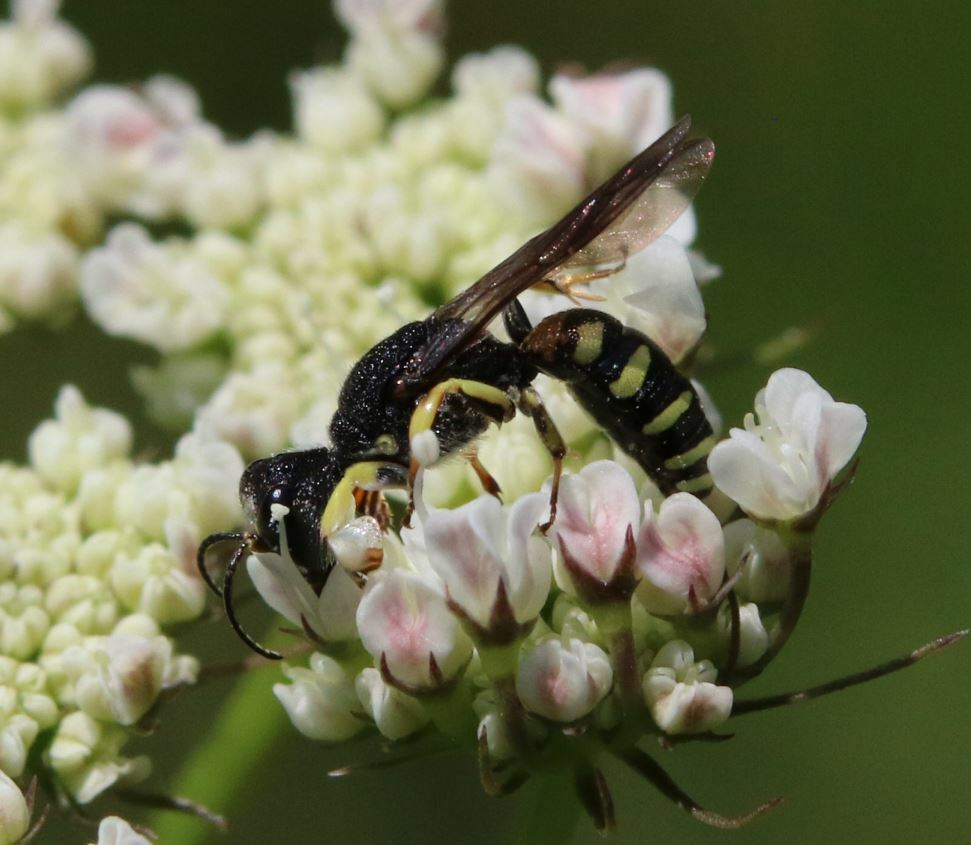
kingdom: Animalia
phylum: Arthropoda
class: Insecta
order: Hymenoptera
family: Crabronidae
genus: Lestica
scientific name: Lestica clypeata
